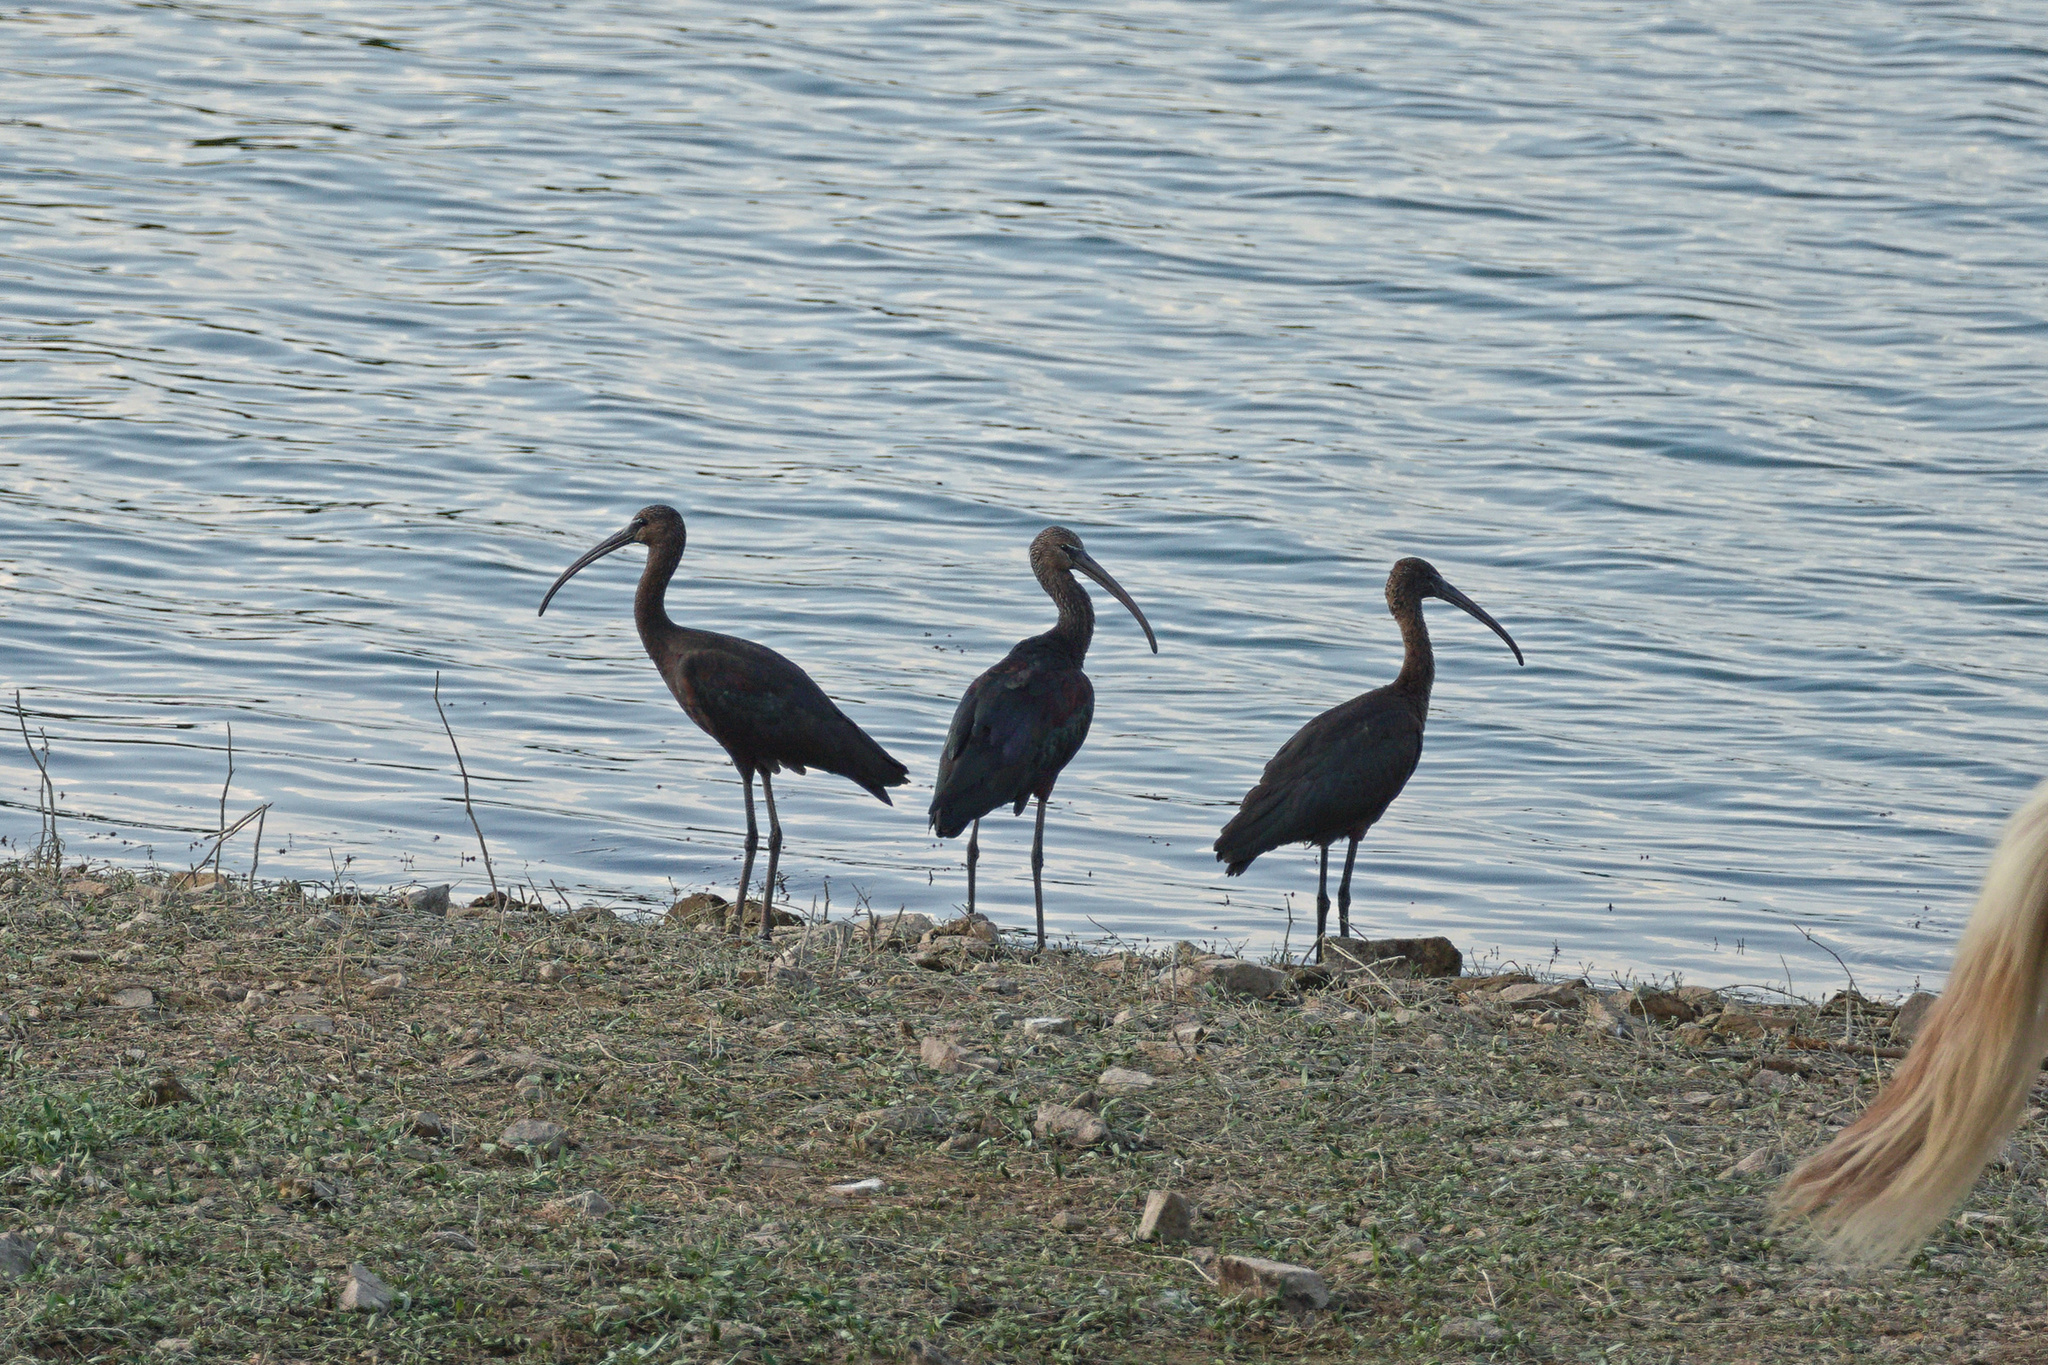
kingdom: Animalia
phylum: Chordata
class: Aves
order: Pelecaniformes
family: Threskiornithidae
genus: Plegadis
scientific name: Plegadis falcinellus
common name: Glossy ibis
